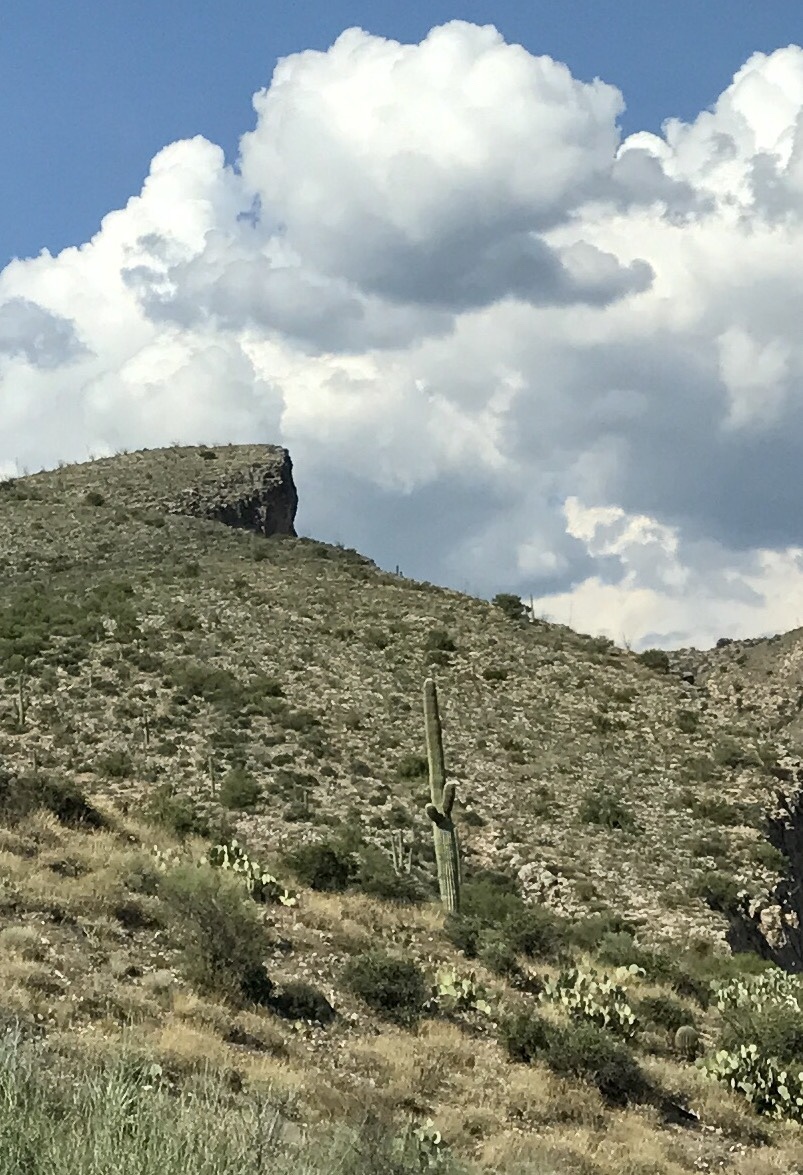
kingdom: Plantae
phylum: Tracheophyta
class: Magnoliopsida
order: Caryophyllales
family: Cactaceae
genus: Carnegiea
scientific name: Carnegiea gigantea
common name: Saguaro
